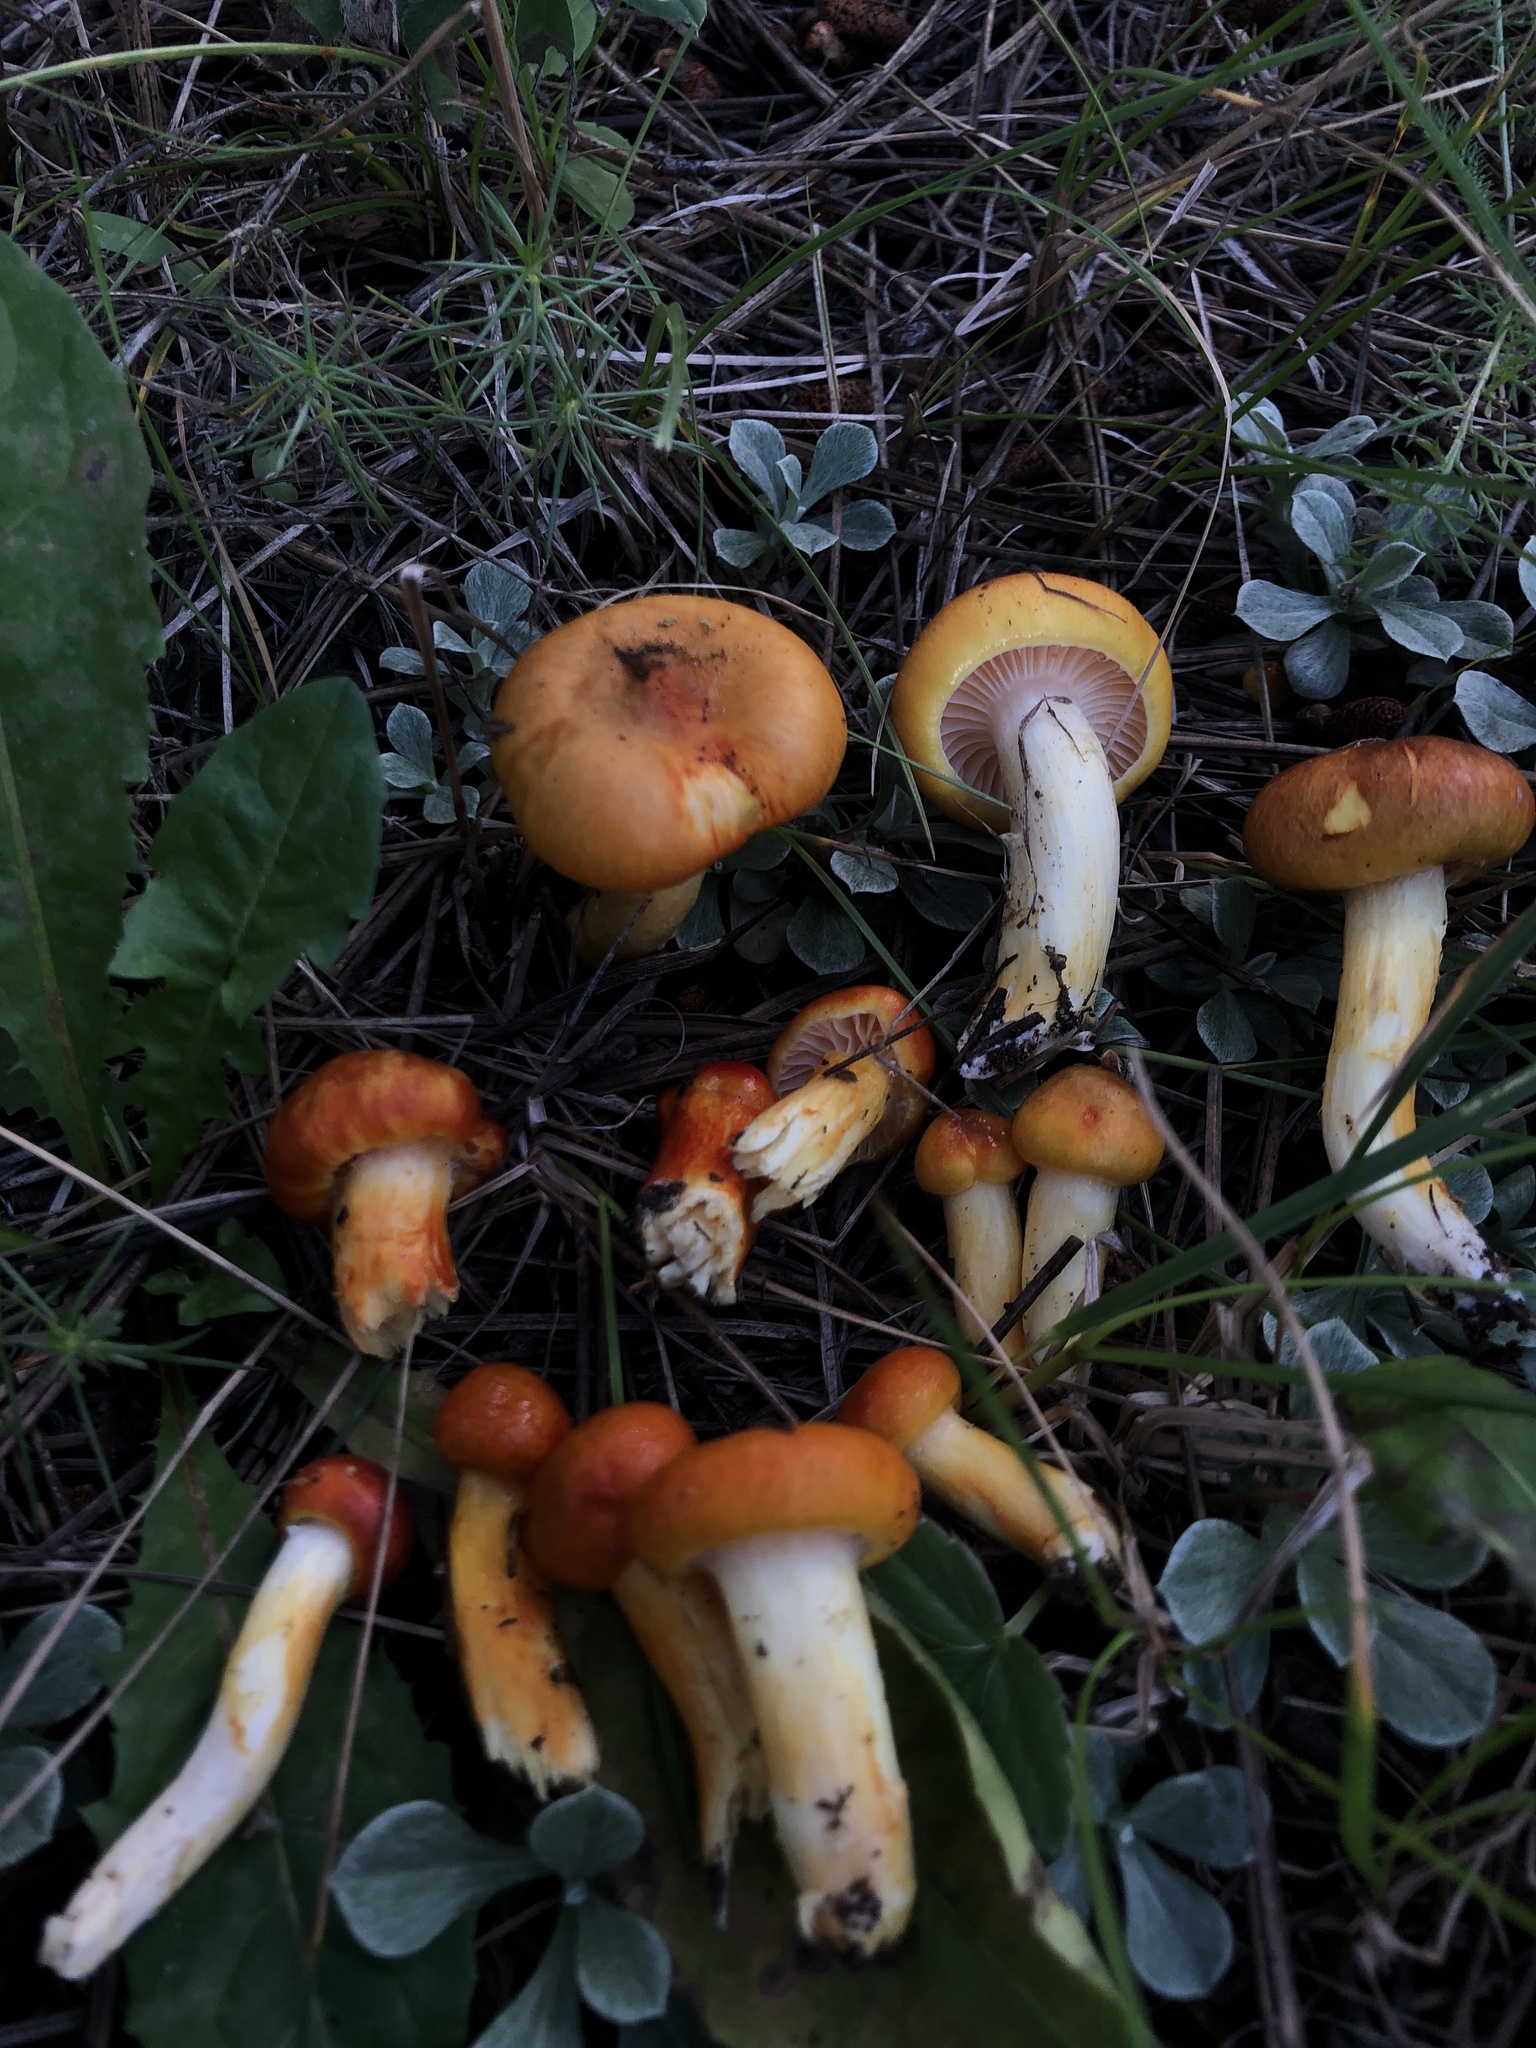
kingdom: Fungi
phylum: Basidiomycota
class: Agaricomycetes
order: Agaricales
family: Hygrophoraceae
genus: Hygrophorus
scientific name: Hygrophorus siccipes
